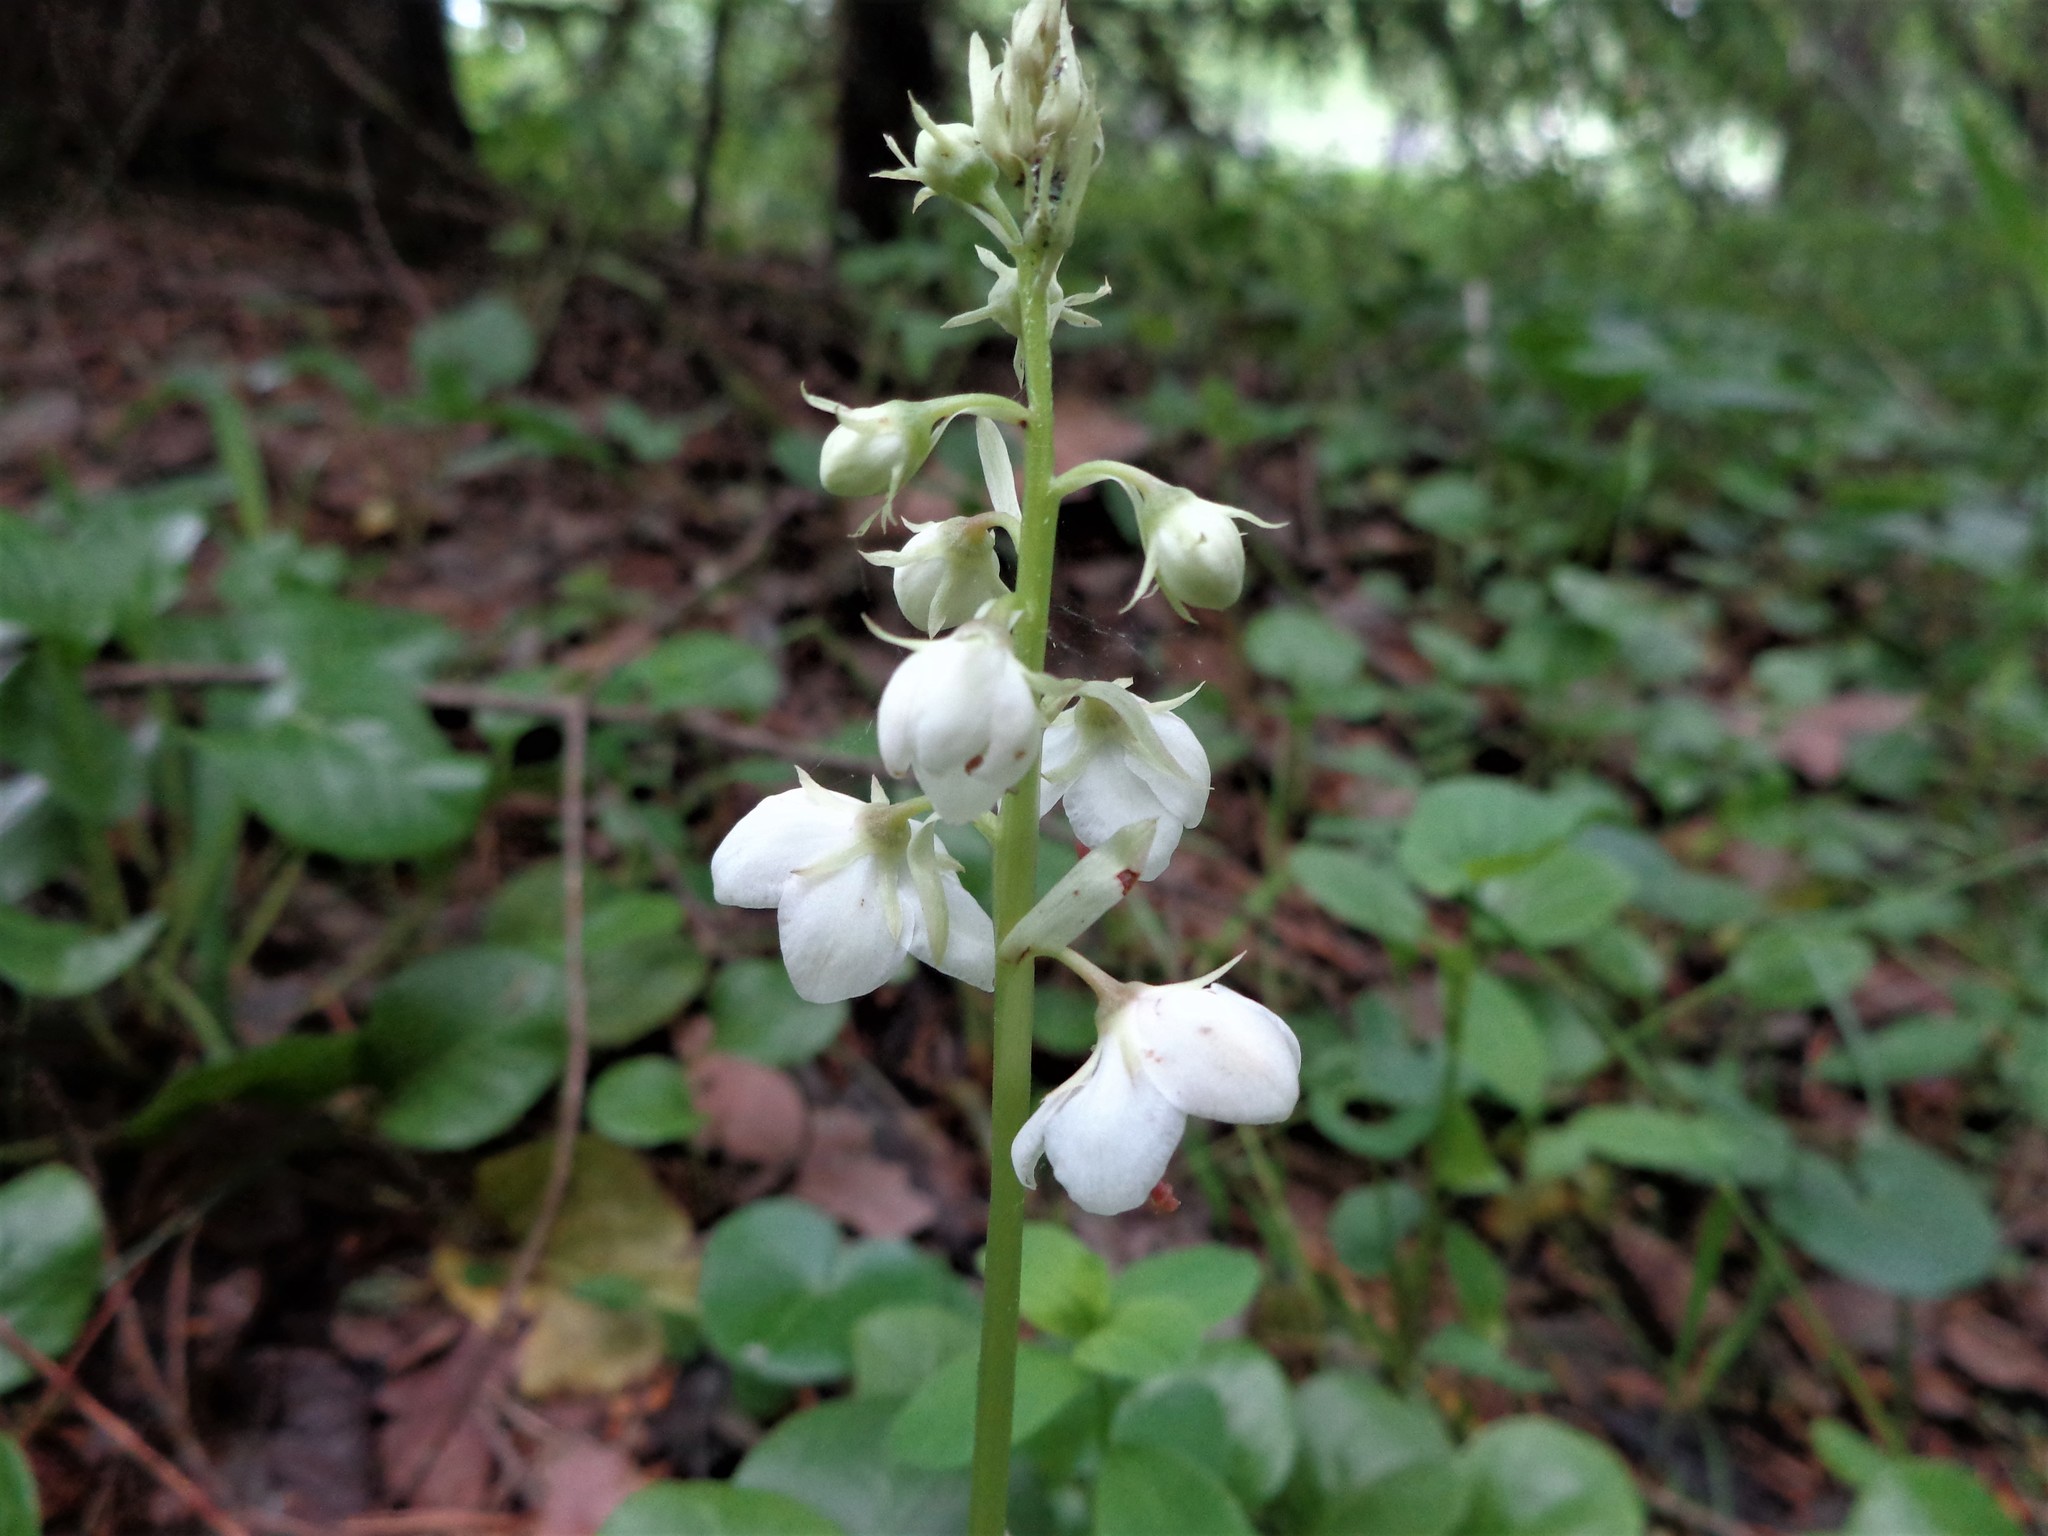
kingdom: Plantae
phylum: Tracheophyta
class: Magnoliopsida
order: Ericales
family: Ericaceae
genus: Pyrola
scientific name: Pyrola rotundifolia
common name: Round-leaved wintergreen
